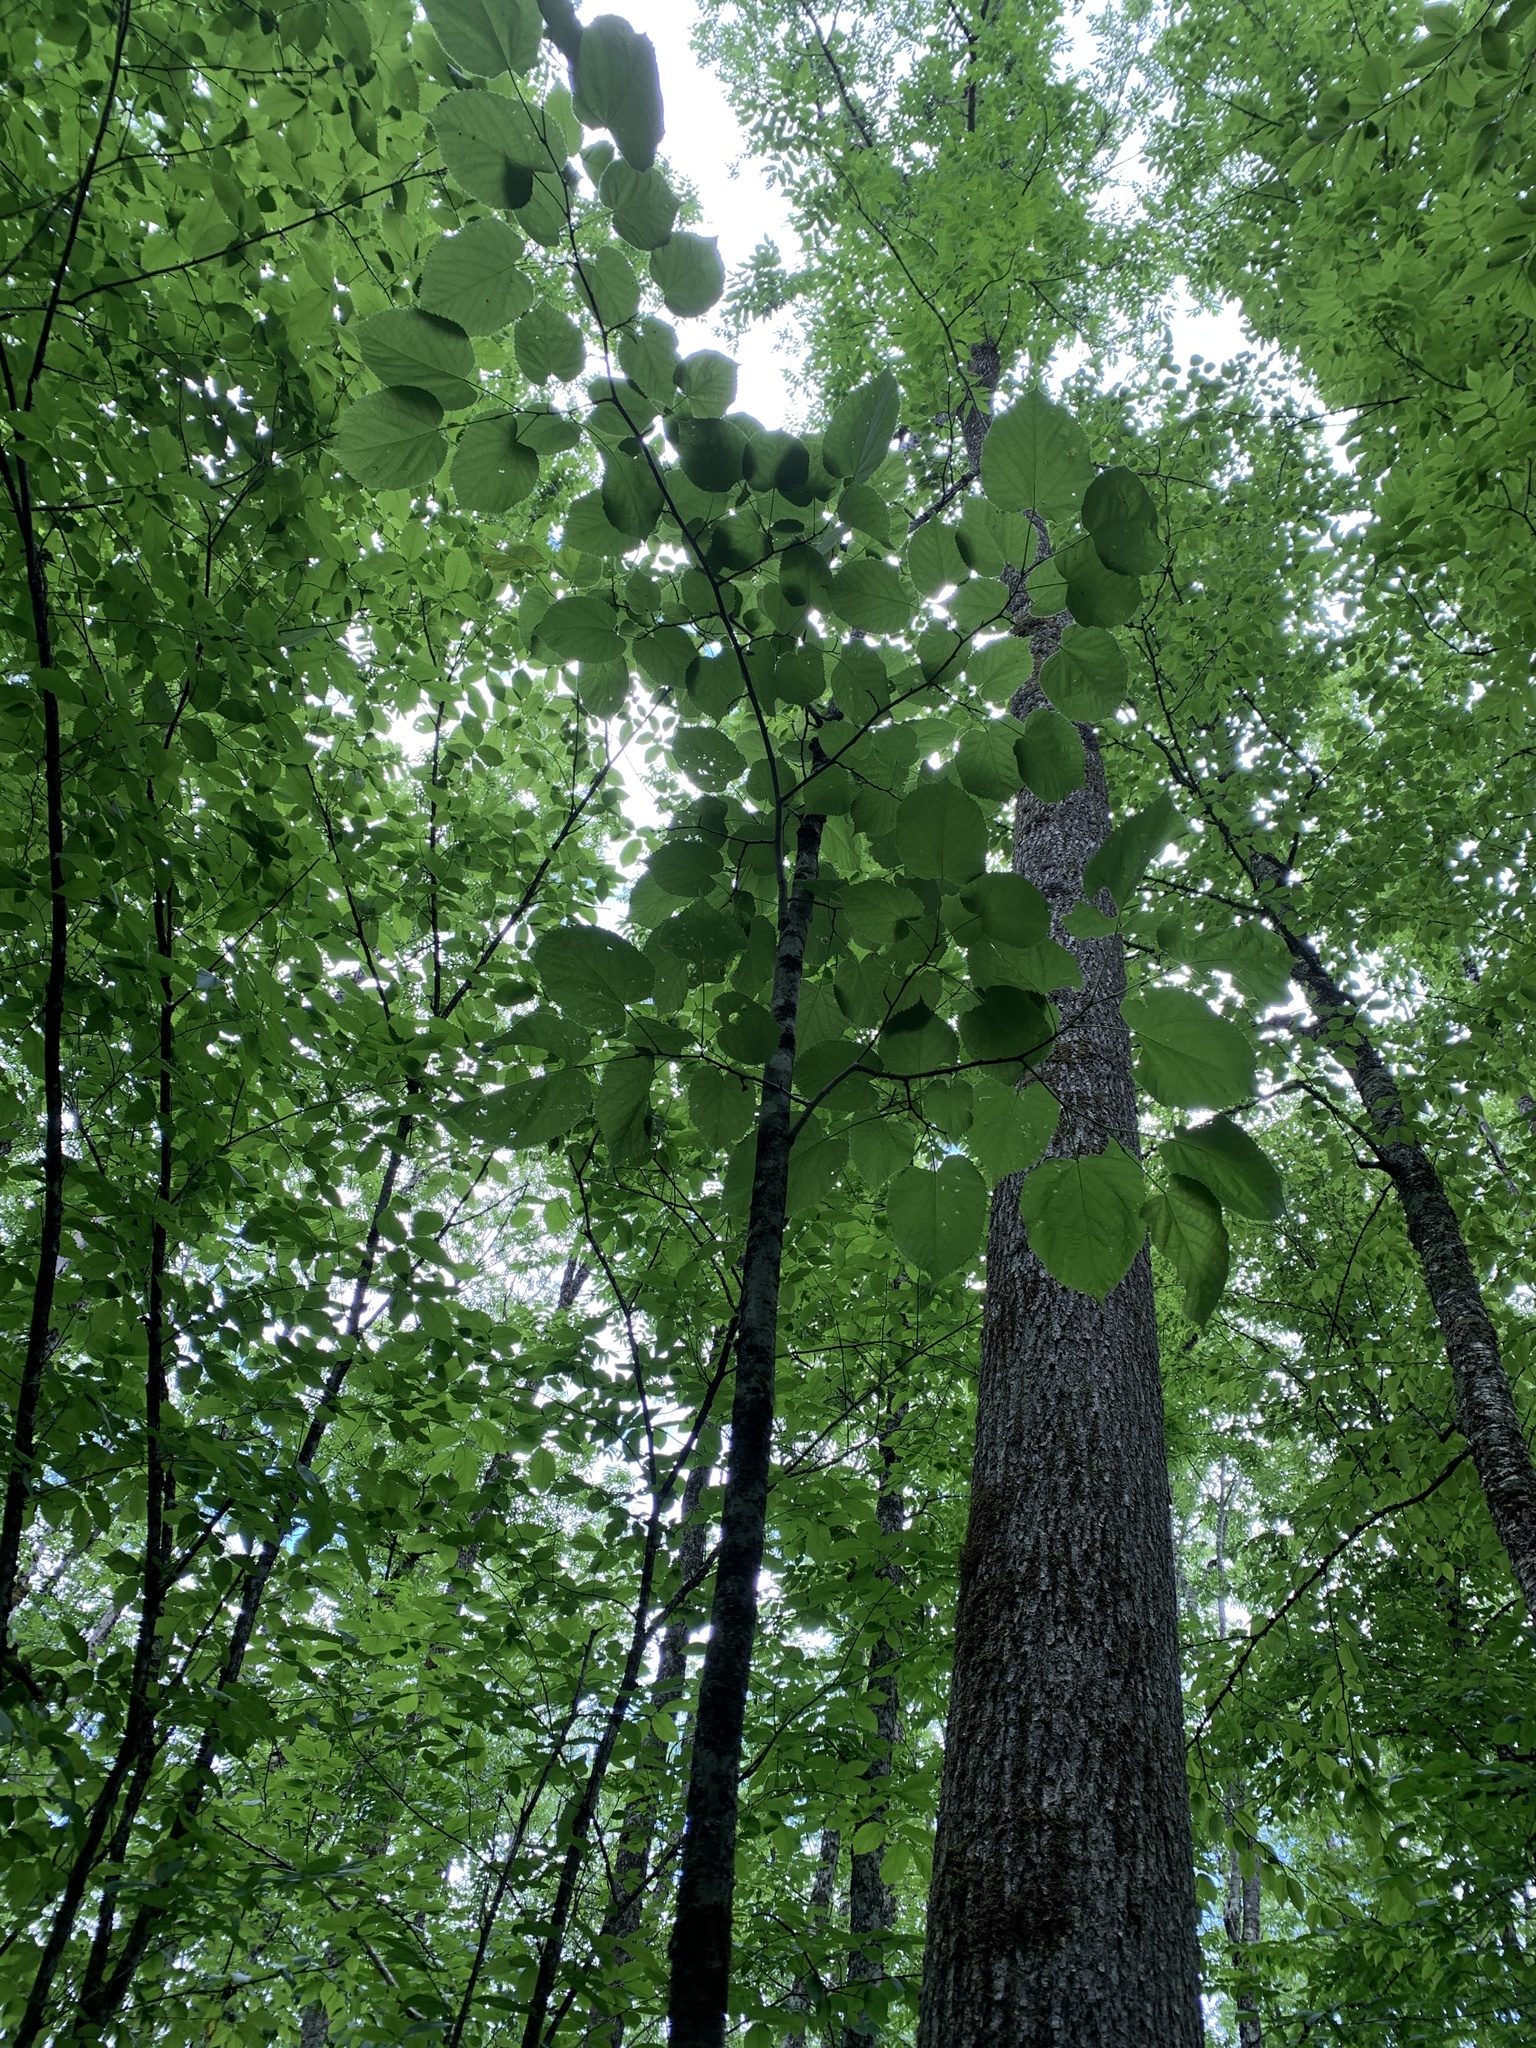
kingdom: Plantae
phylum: Tracheophyta
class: Magnoliopsida
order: Malvales
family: Malvaceae
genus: Tilia
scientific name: Tilia americana
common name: Basswood
